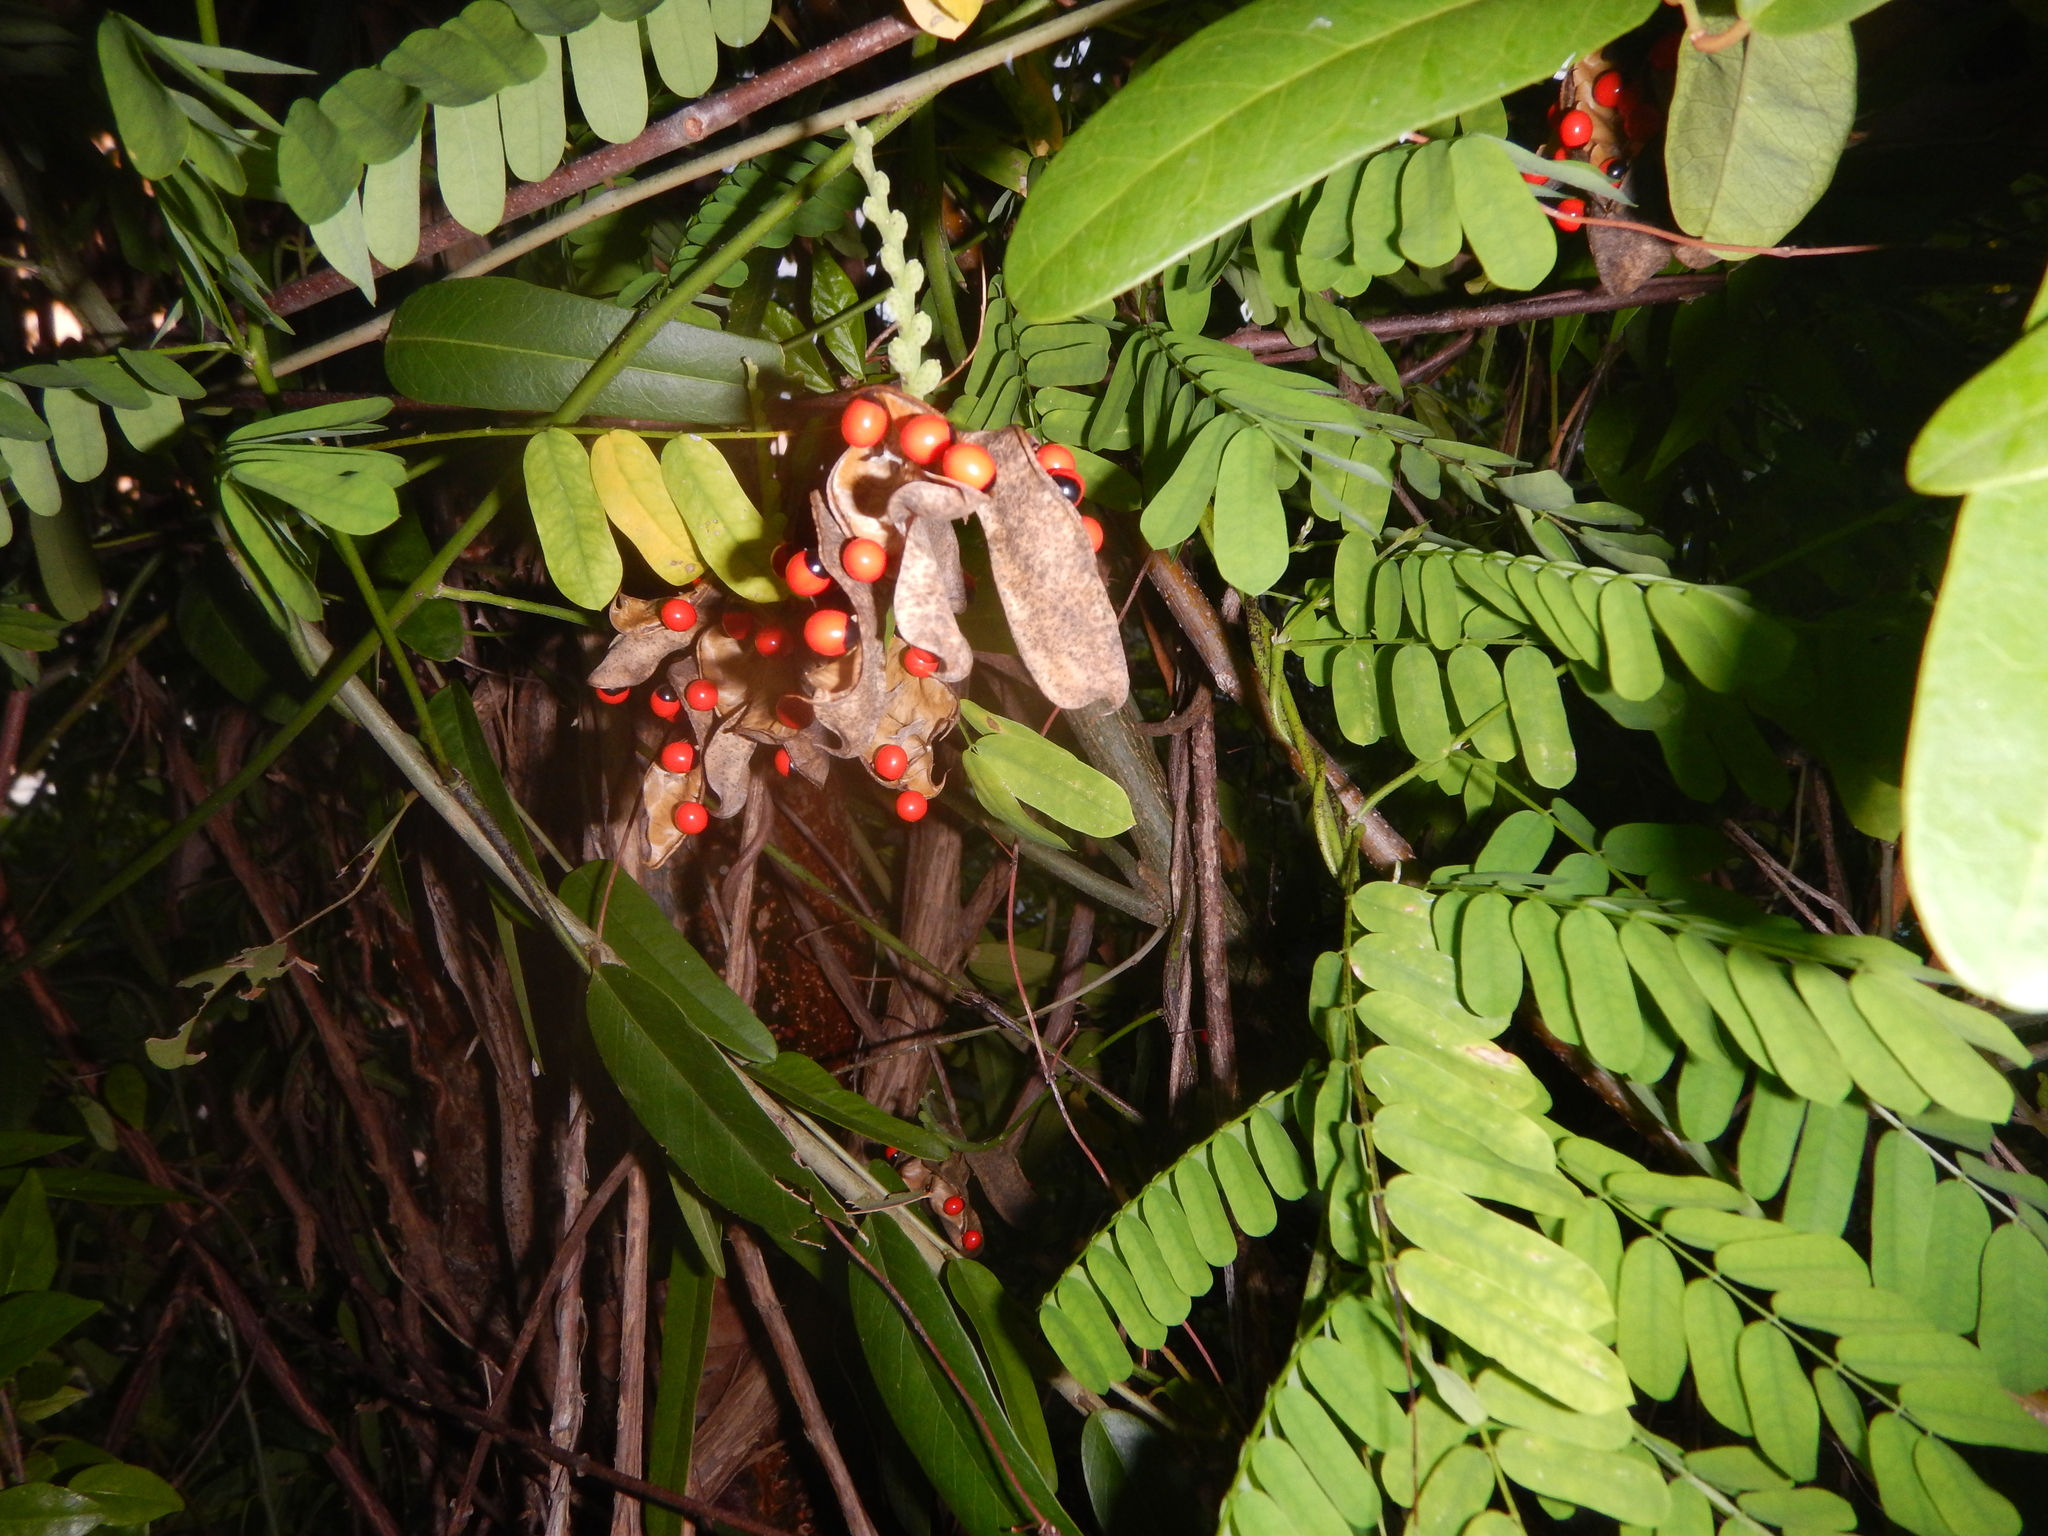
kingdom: Plantae
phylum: Tracheophyta
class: Magnoliopsida
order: Fabales
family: Fabaceae
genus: Abrus
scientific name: Abrus precatorius
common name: Rosarypea
